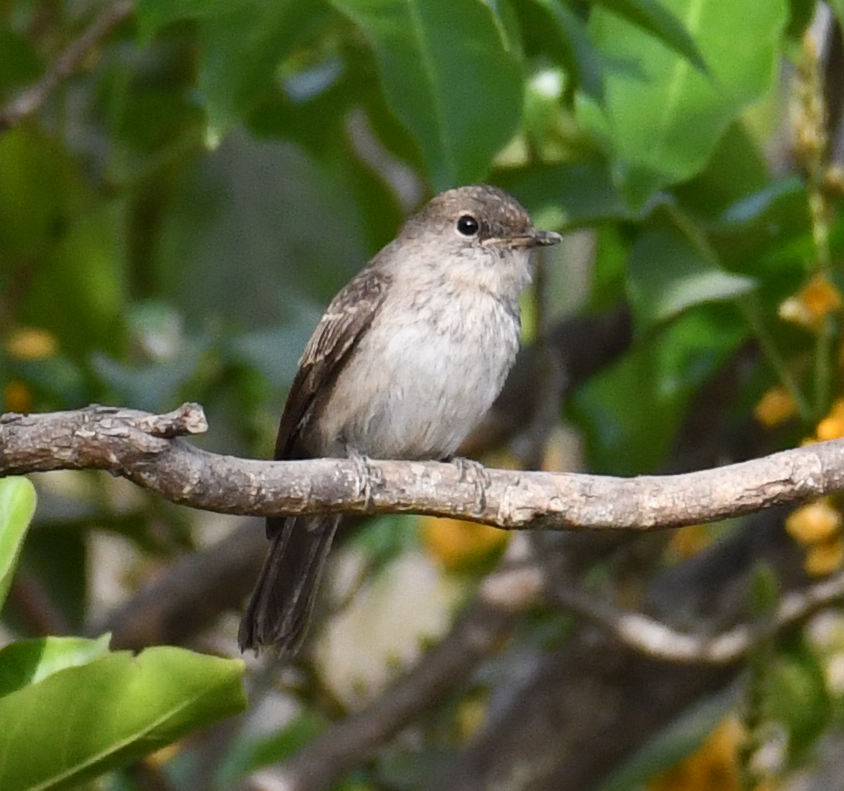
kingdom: Animalia
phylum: Chordata
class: Aves
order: Passeriformes
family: Muscicapidae
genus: Muscicapa
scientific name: Muscicapa aquatica
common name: Swamp flycatcher
